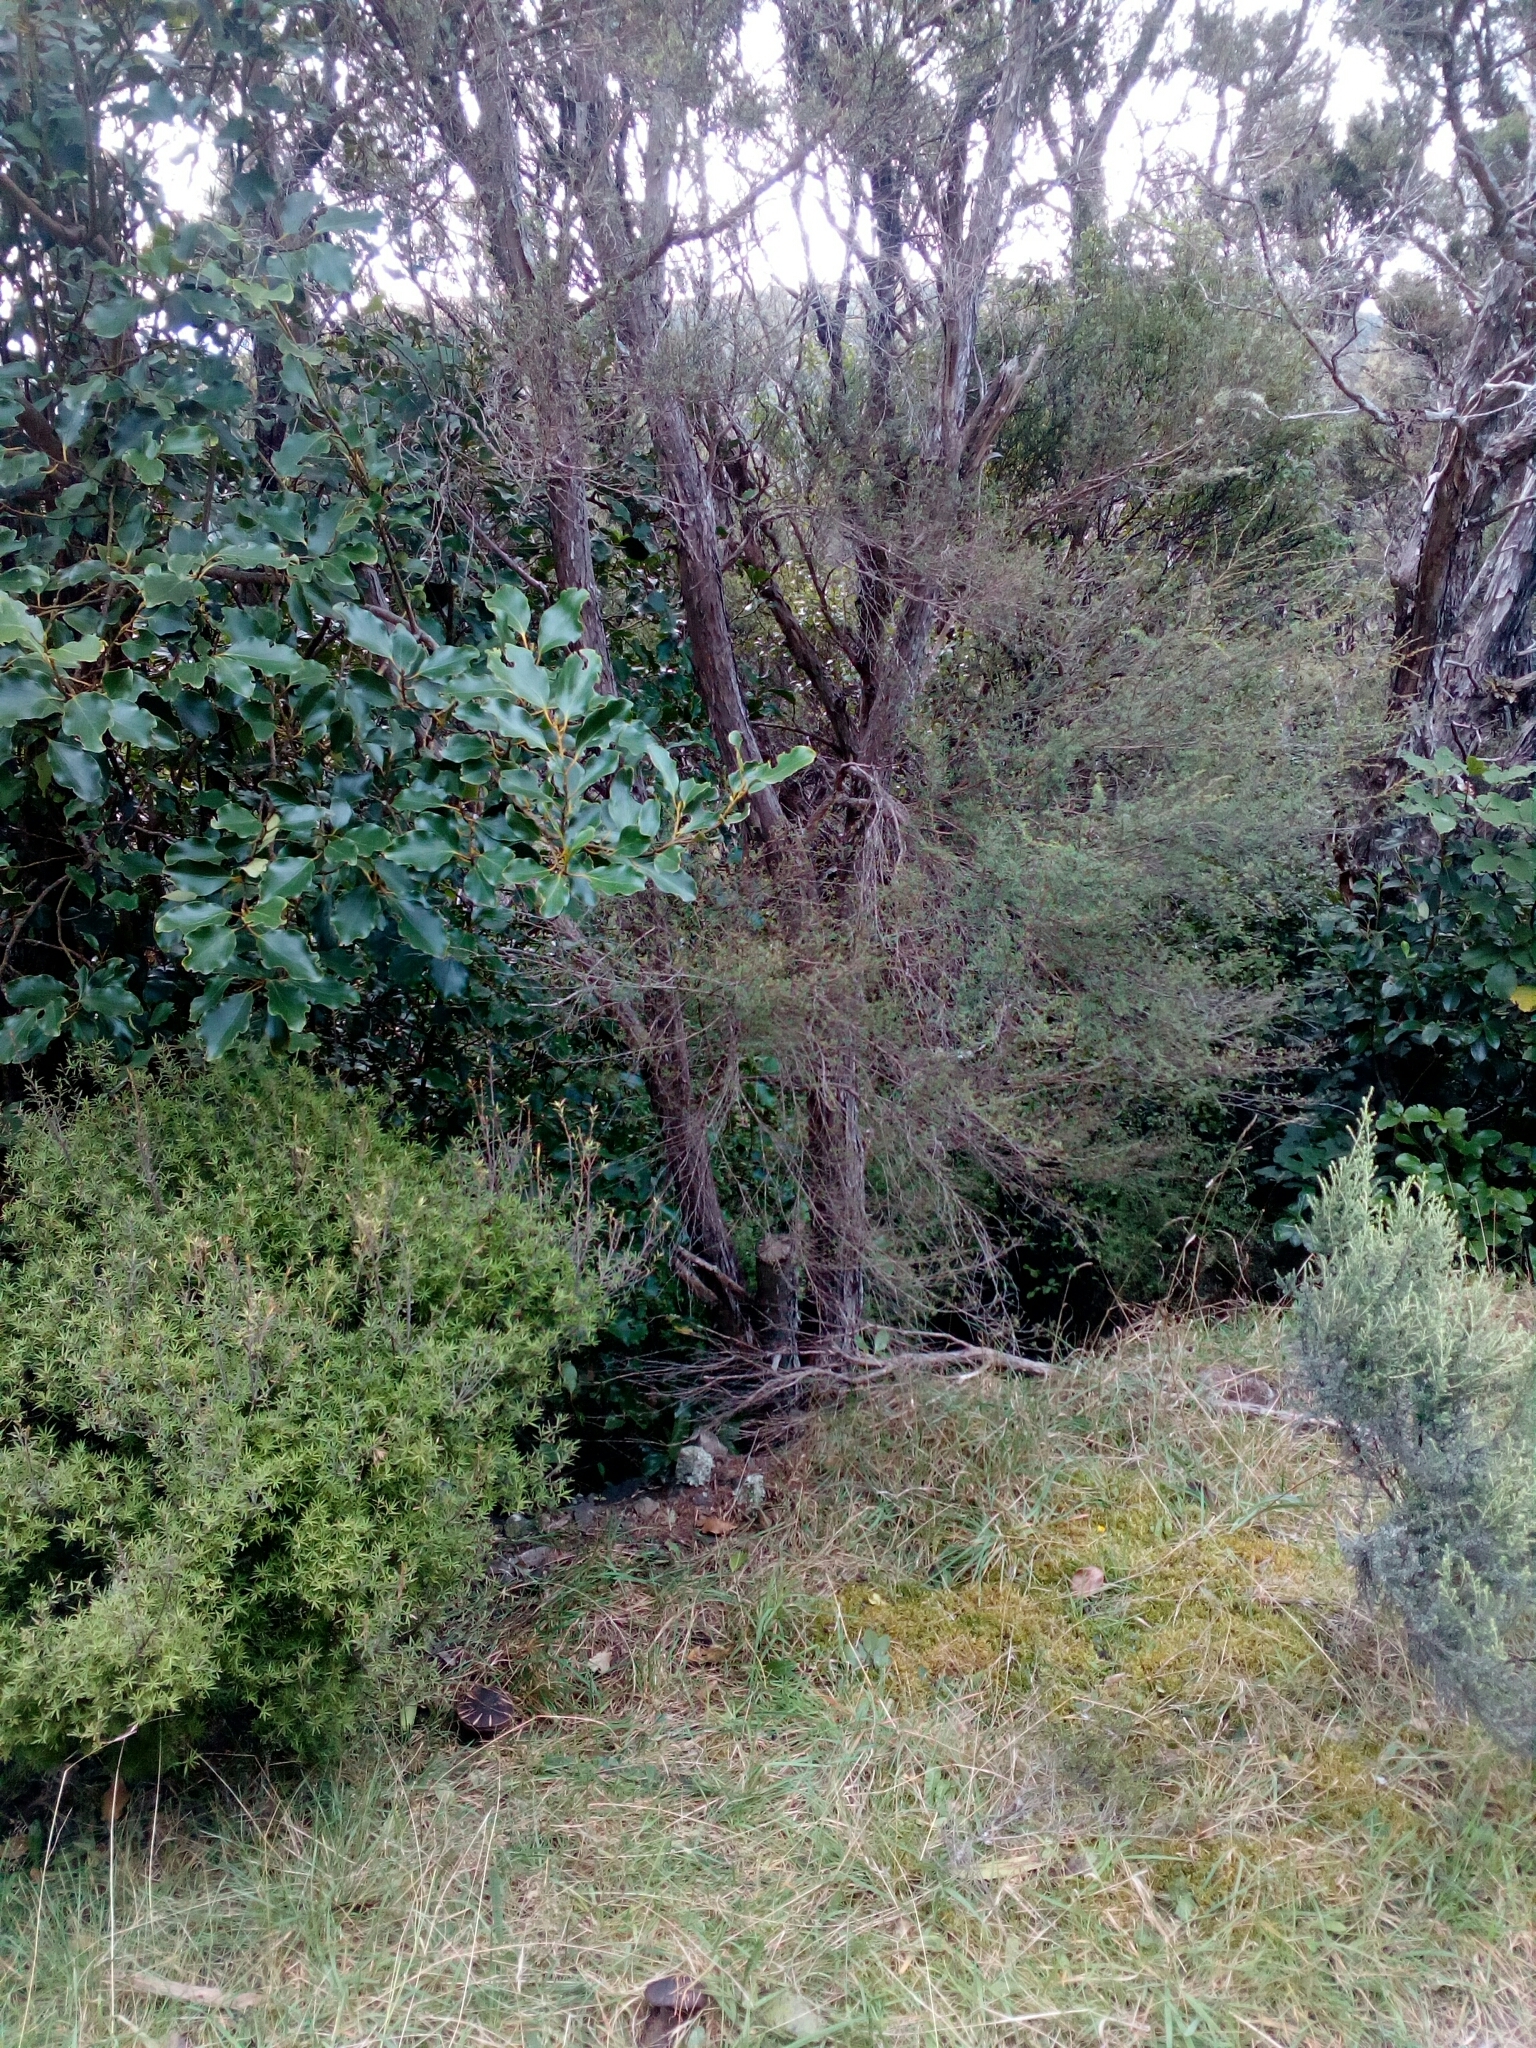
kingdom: Fungi
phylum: Basidiomycota
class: Agaricomycetes
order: Boletales
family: Boletaceae
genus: Porphyrellus
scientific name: Porphyrellus formosus
